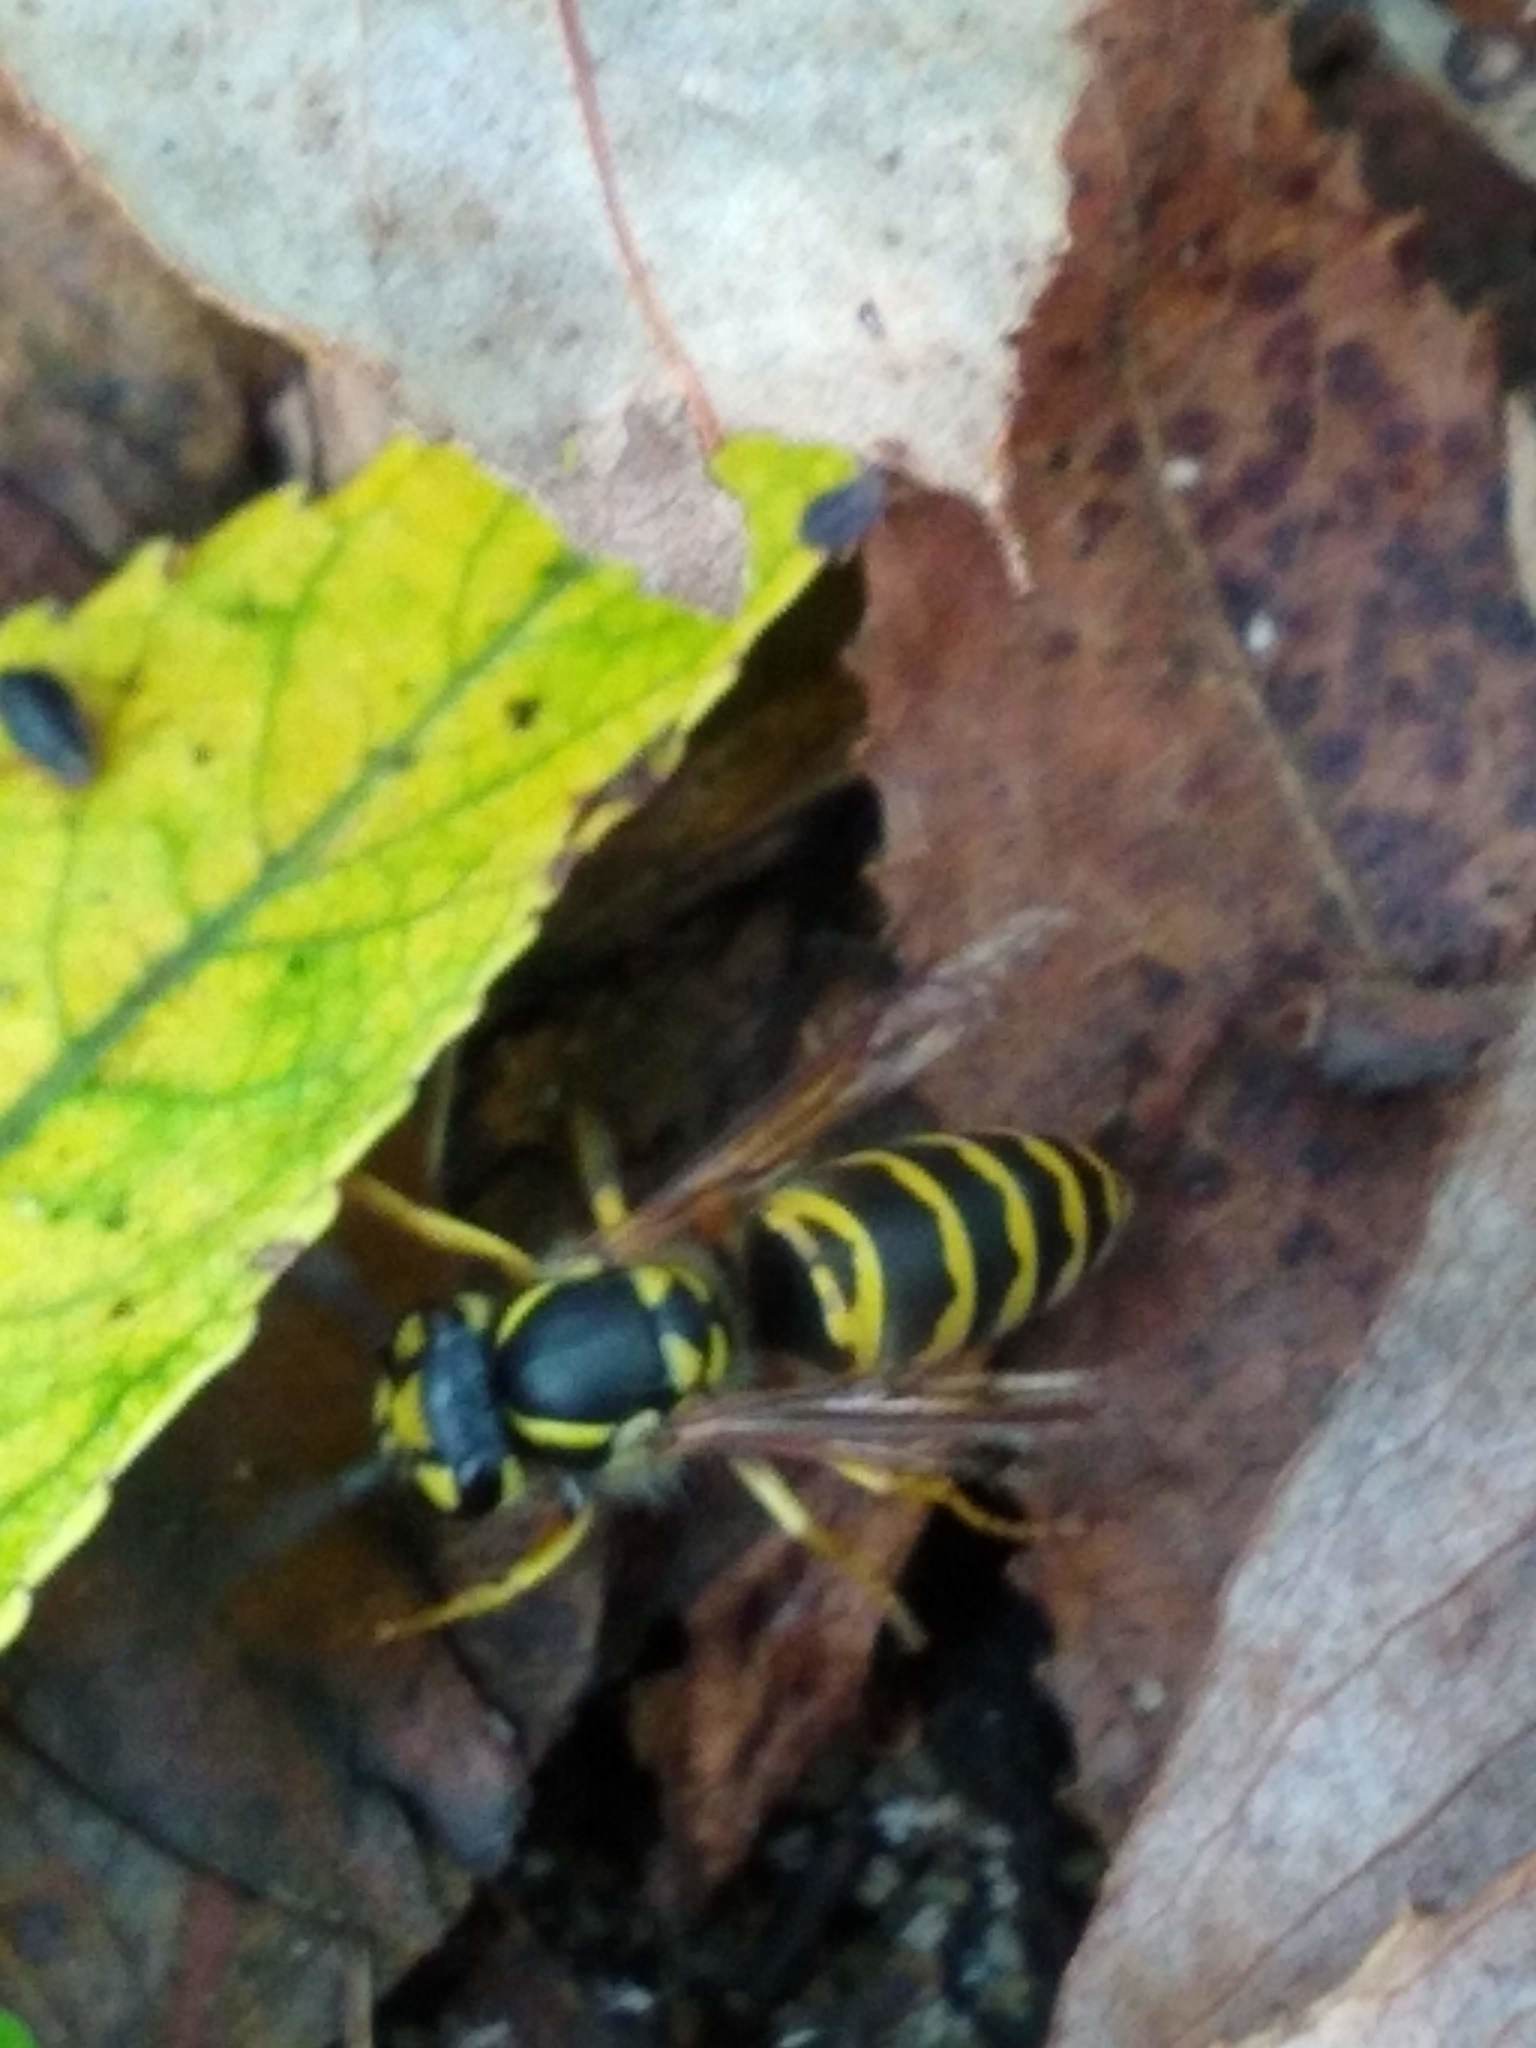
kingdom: Animalia
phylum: Arthropoda
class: Insecta
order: Hymenoptera
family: Vespidae
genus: Vespula
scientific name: Vespula maculifrons
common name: Eastern yellowjacket
